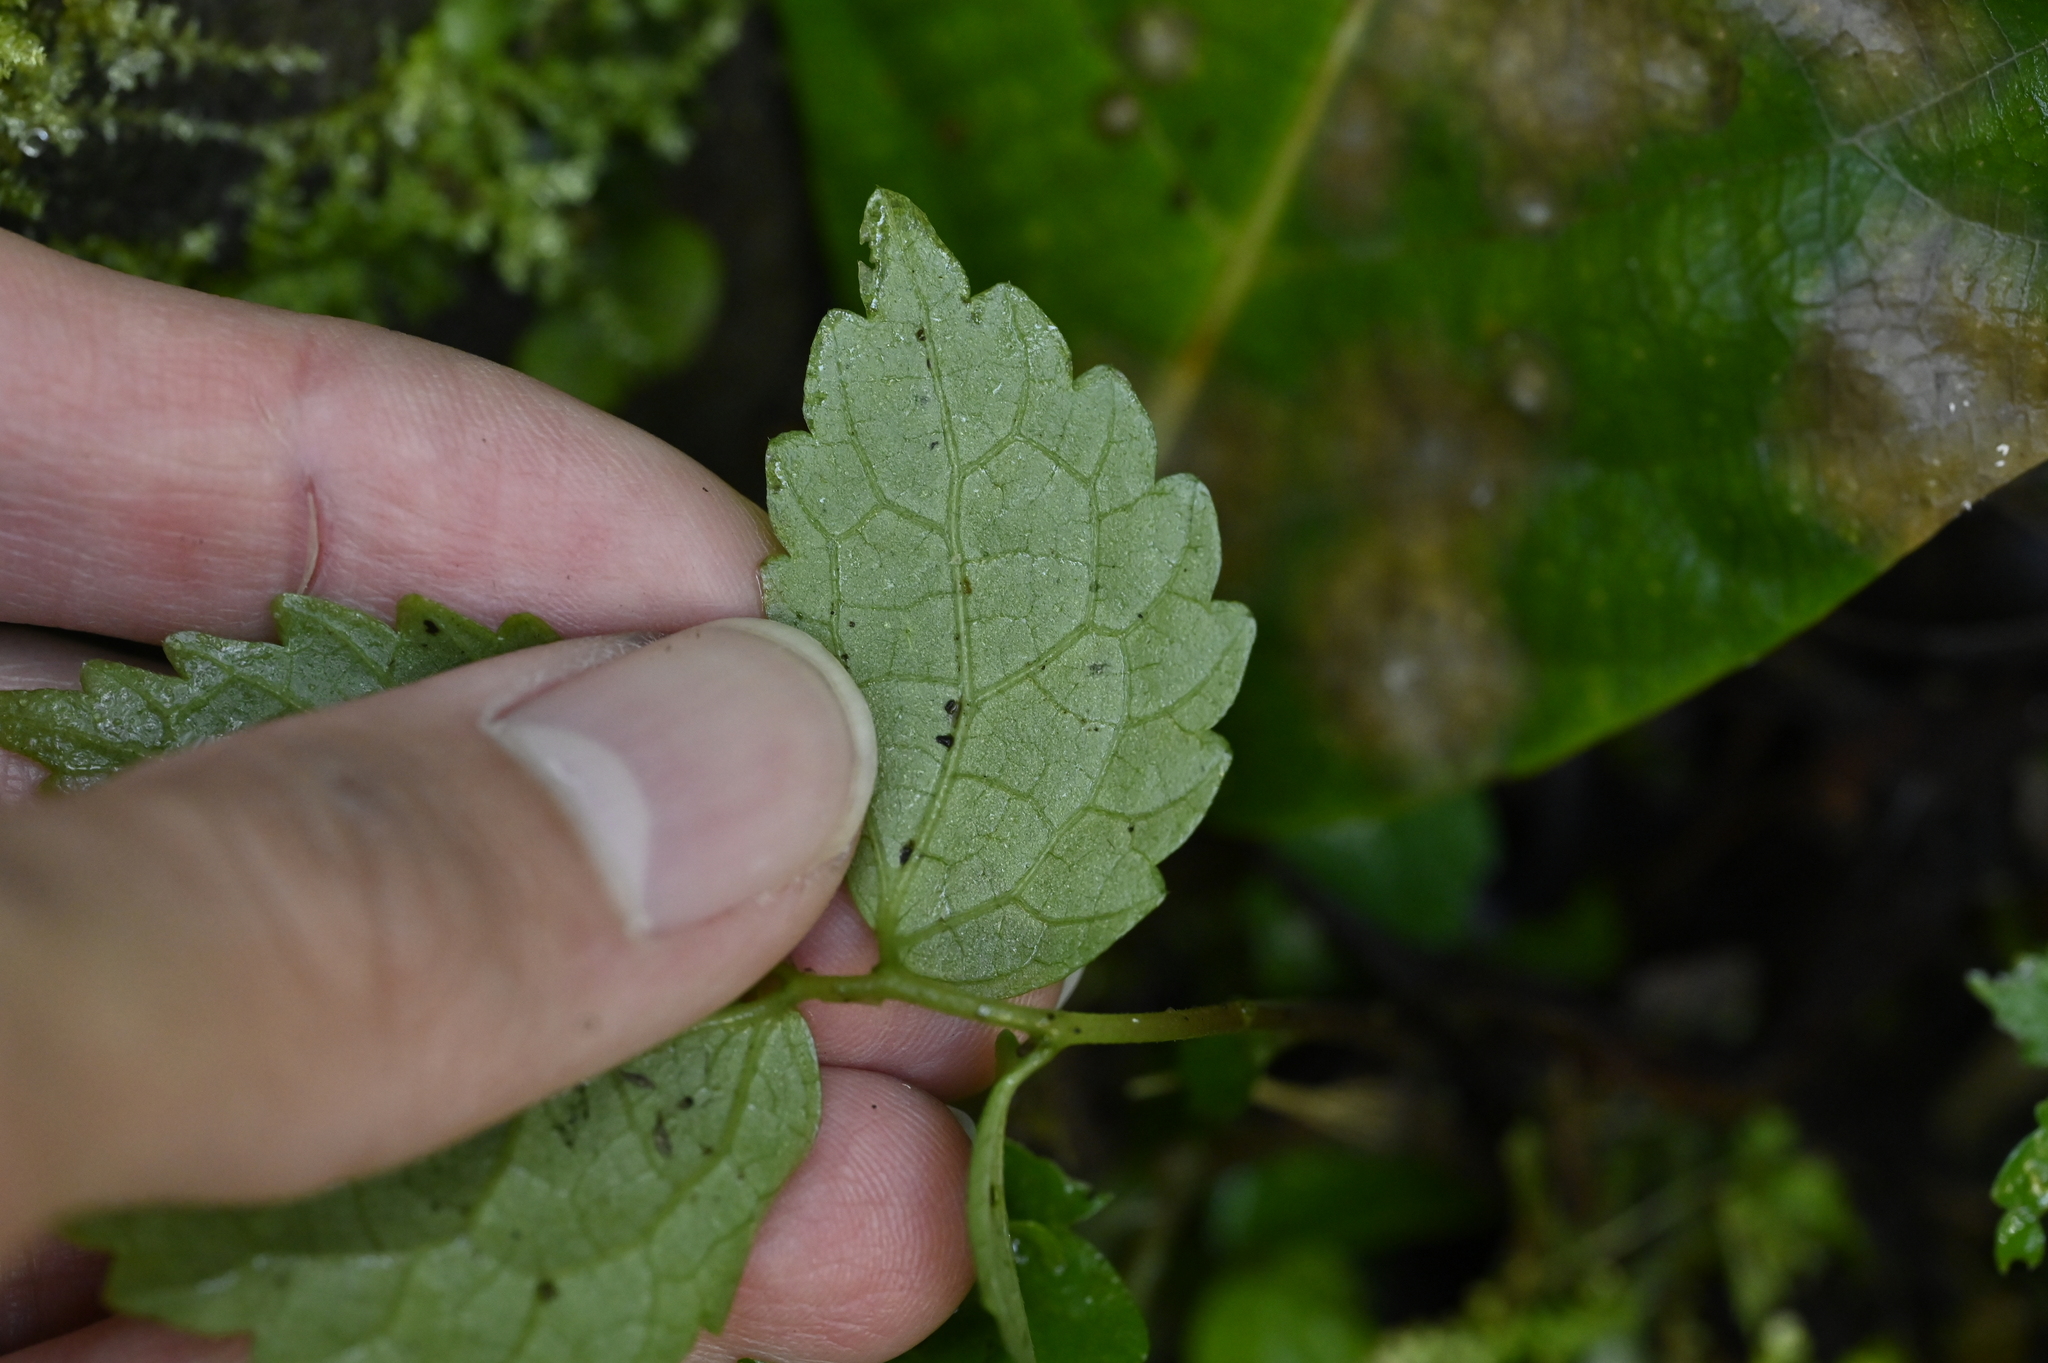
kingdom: Plantae
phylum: Tracheophyta
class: Magnoliopsida
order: Rosales
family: Urticaceae
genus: Elatostema
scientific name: Elatostema cyrtandrifolium
